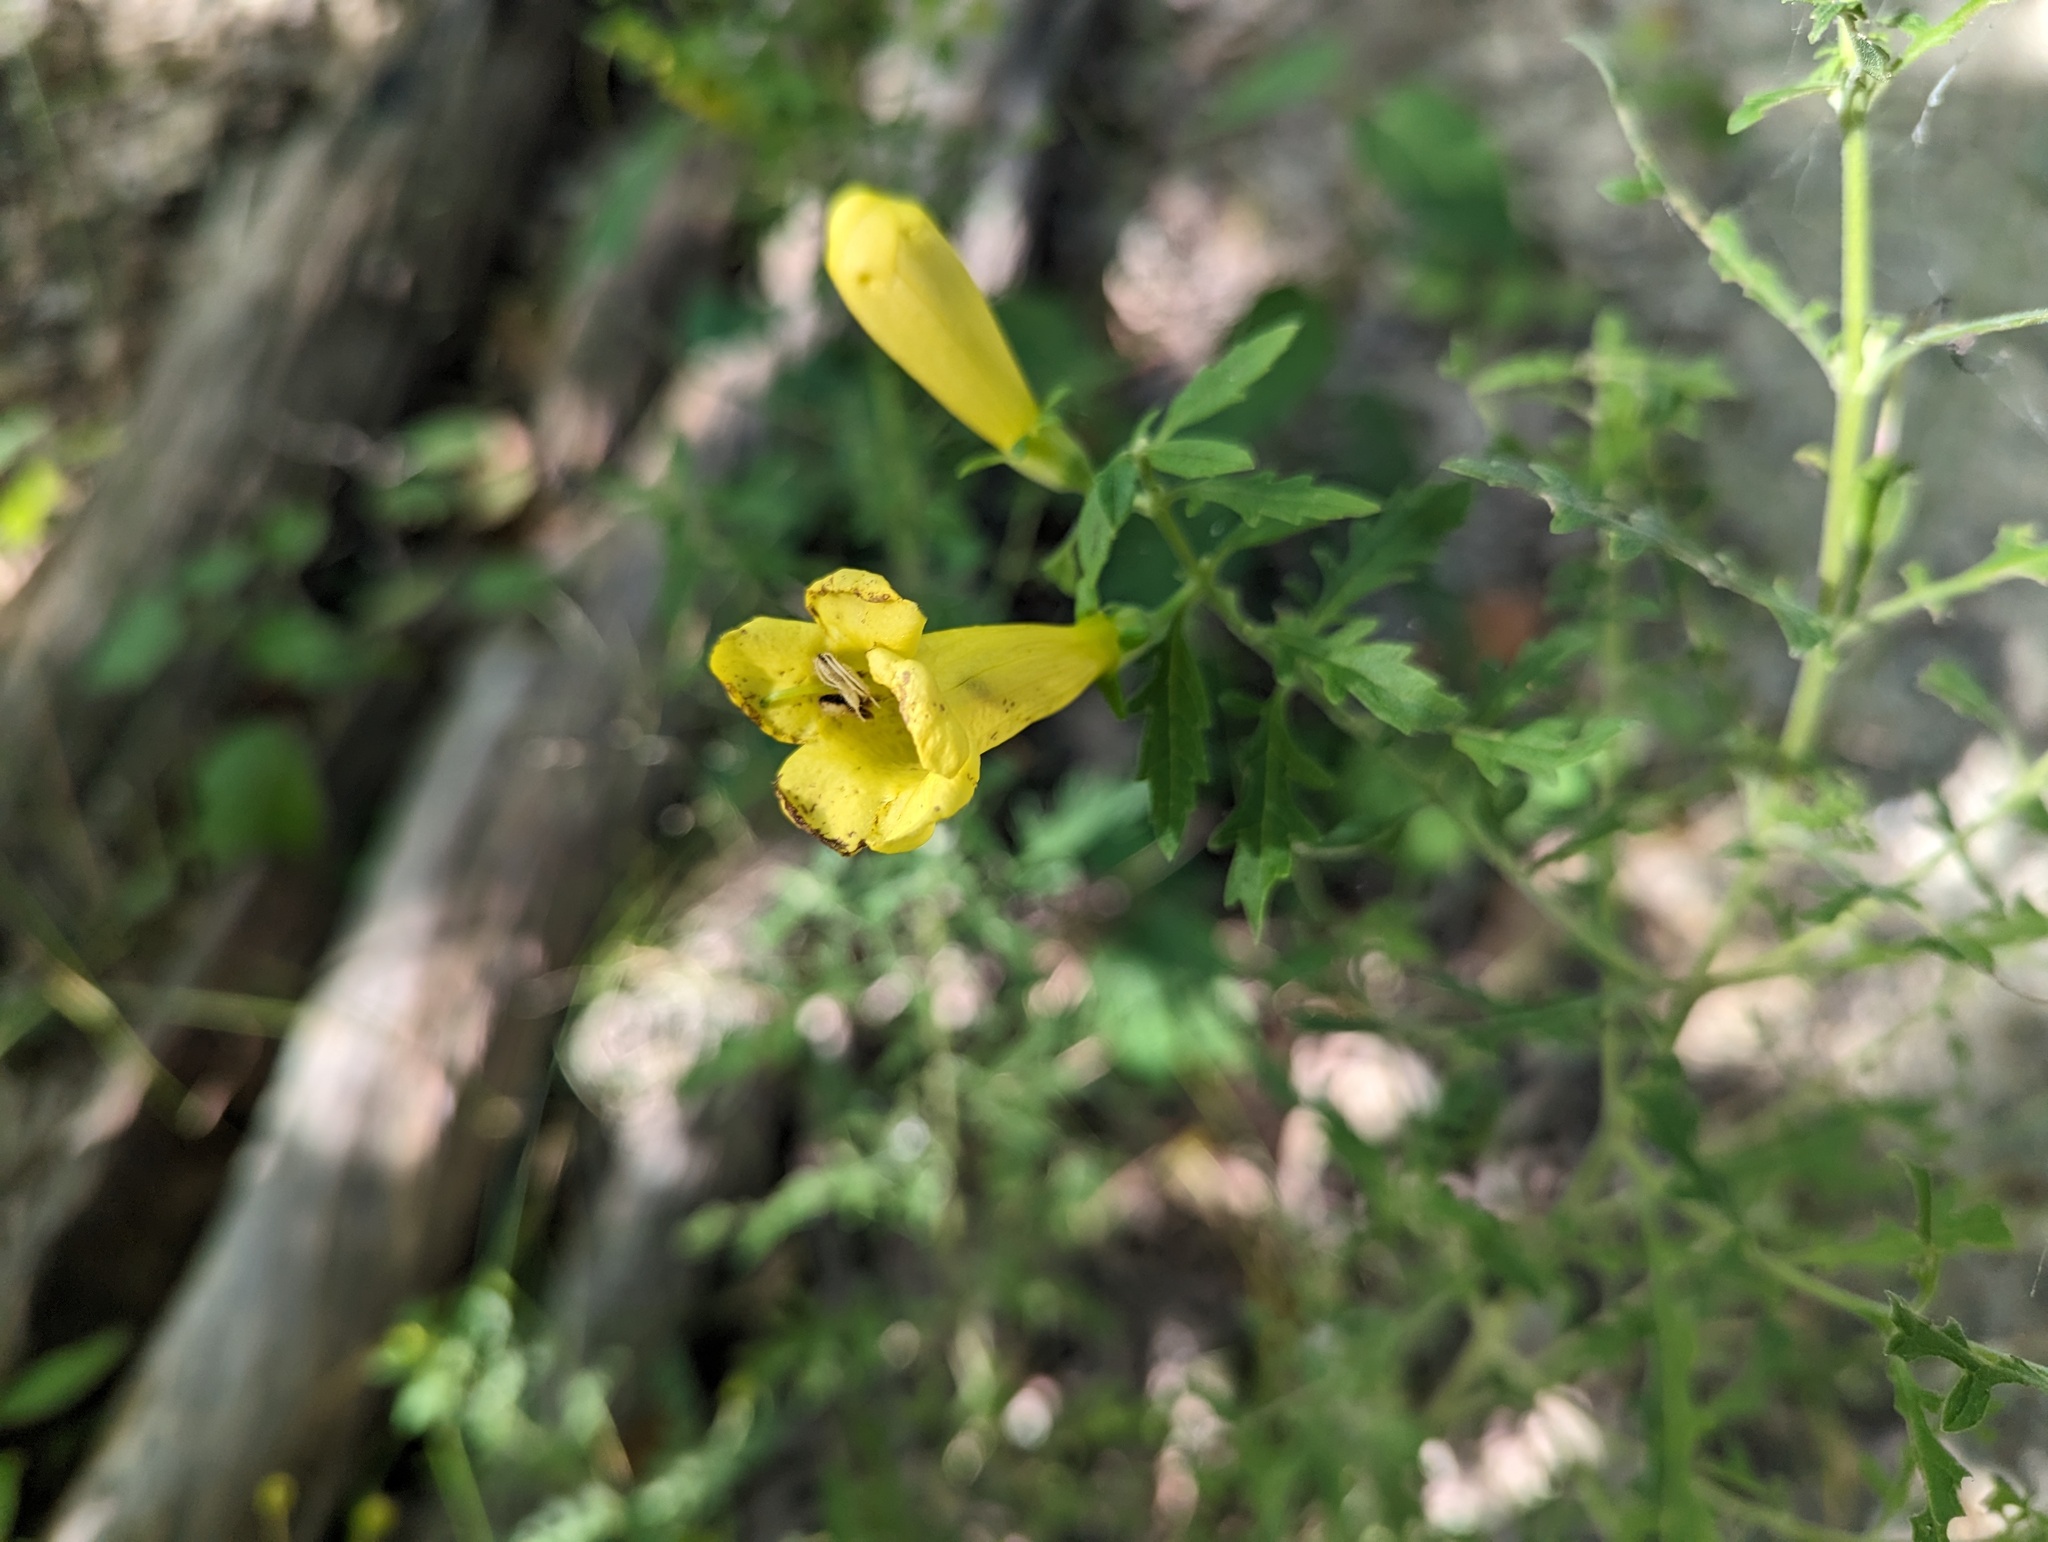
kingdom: Plantae
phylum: Tracheophyta
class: Magnoliopsida
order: Lamiales
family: Orobanchaceae
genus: Aureolaria
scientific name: Aureolaria grandiflora
